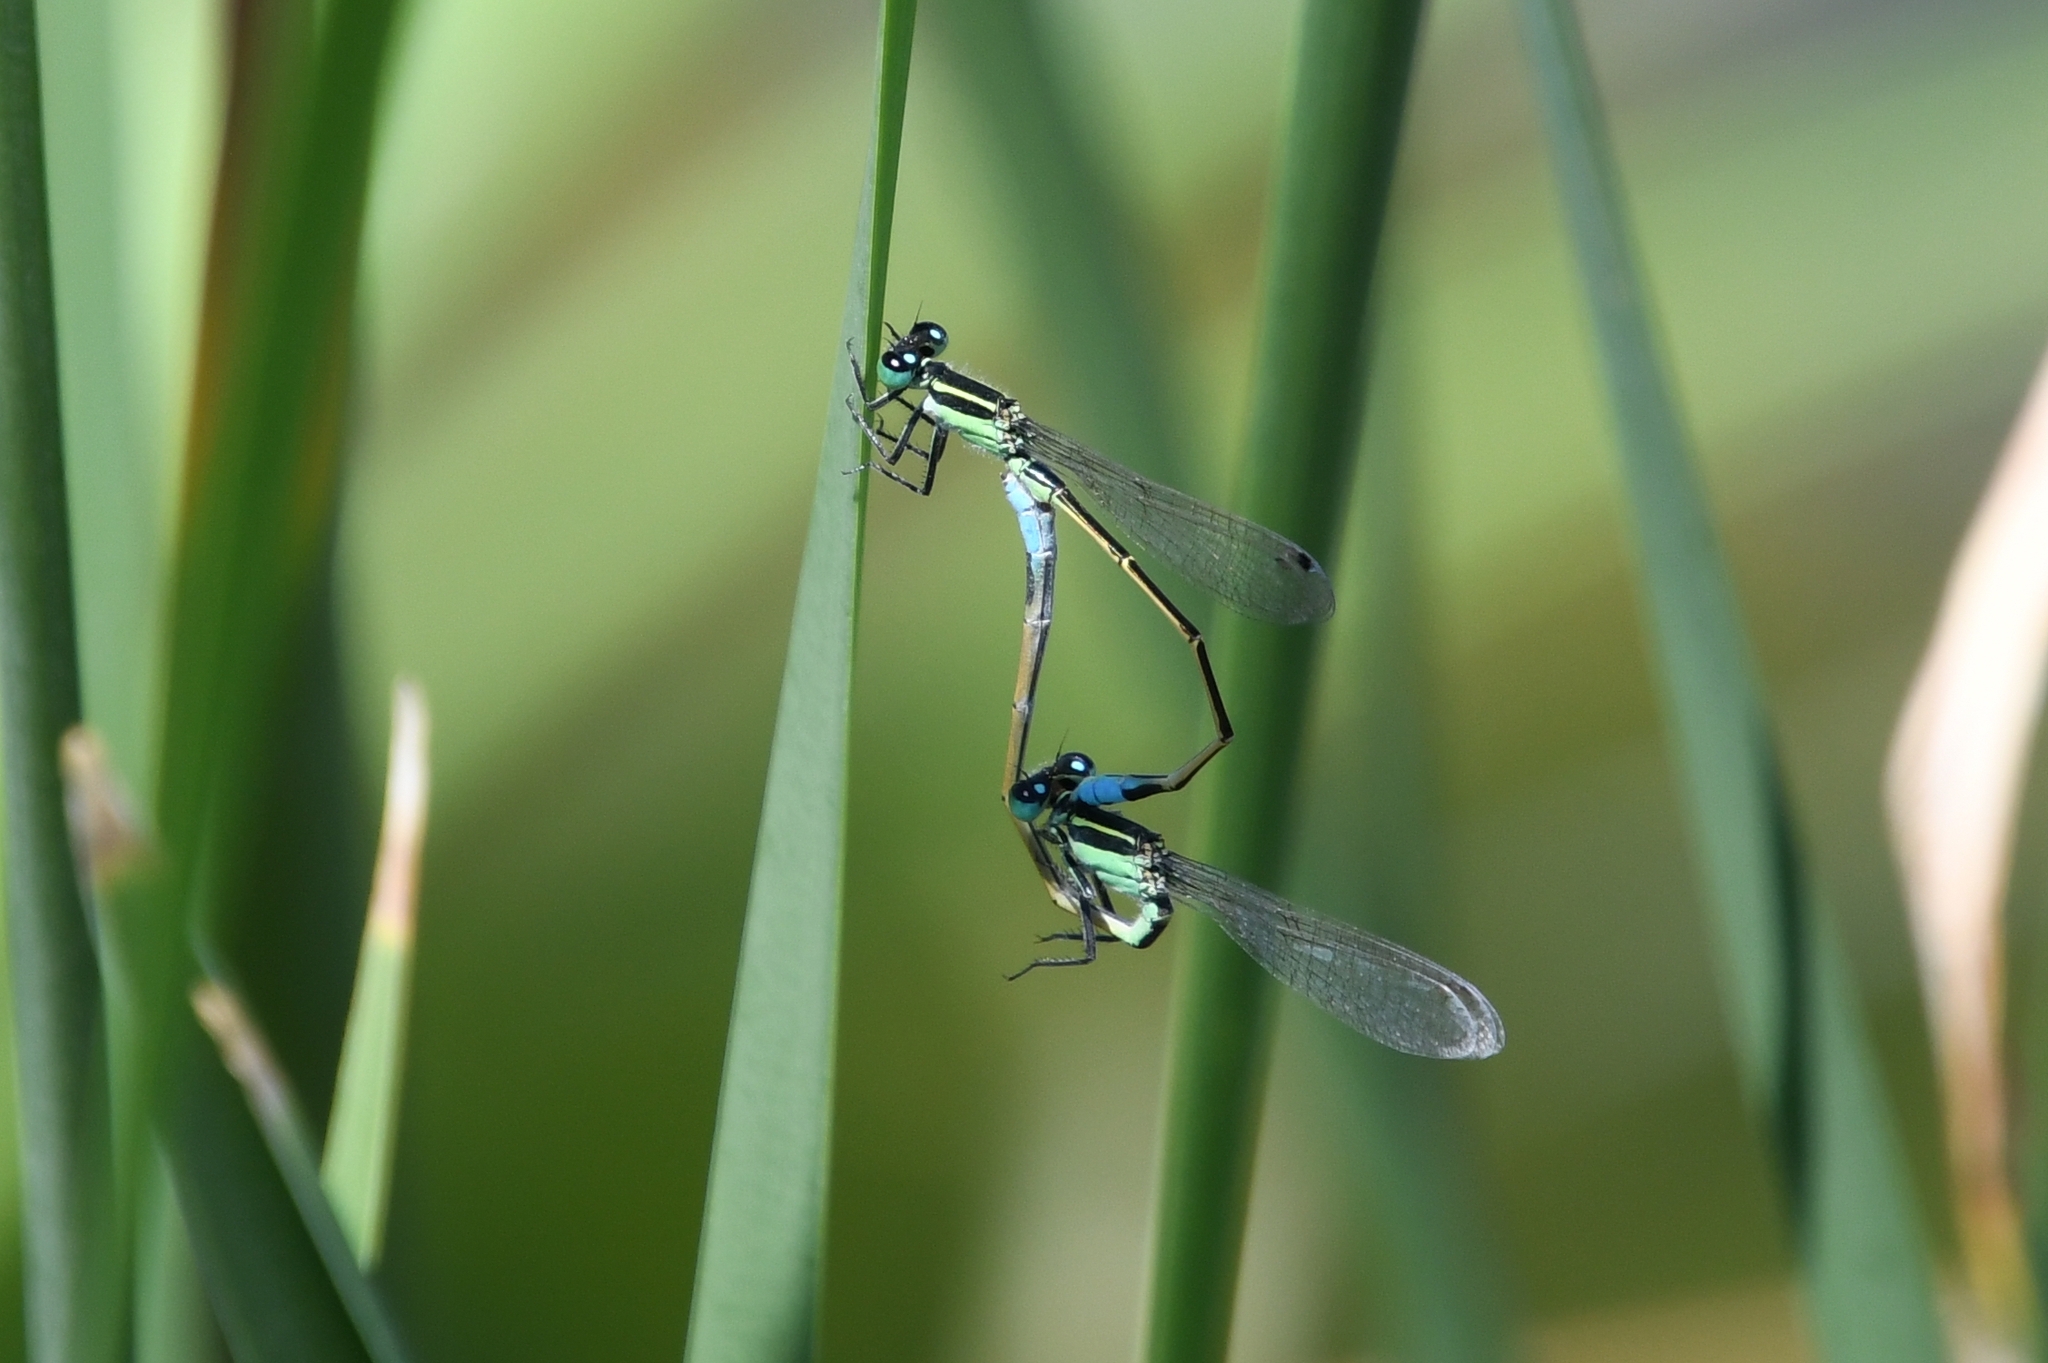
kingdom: Animalia
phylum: Arthropoda
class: Insecta
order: Odonata
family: Coenagrionidae
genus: Ischnura
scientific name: Ischnura ramburii
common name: Rambur's forktail
